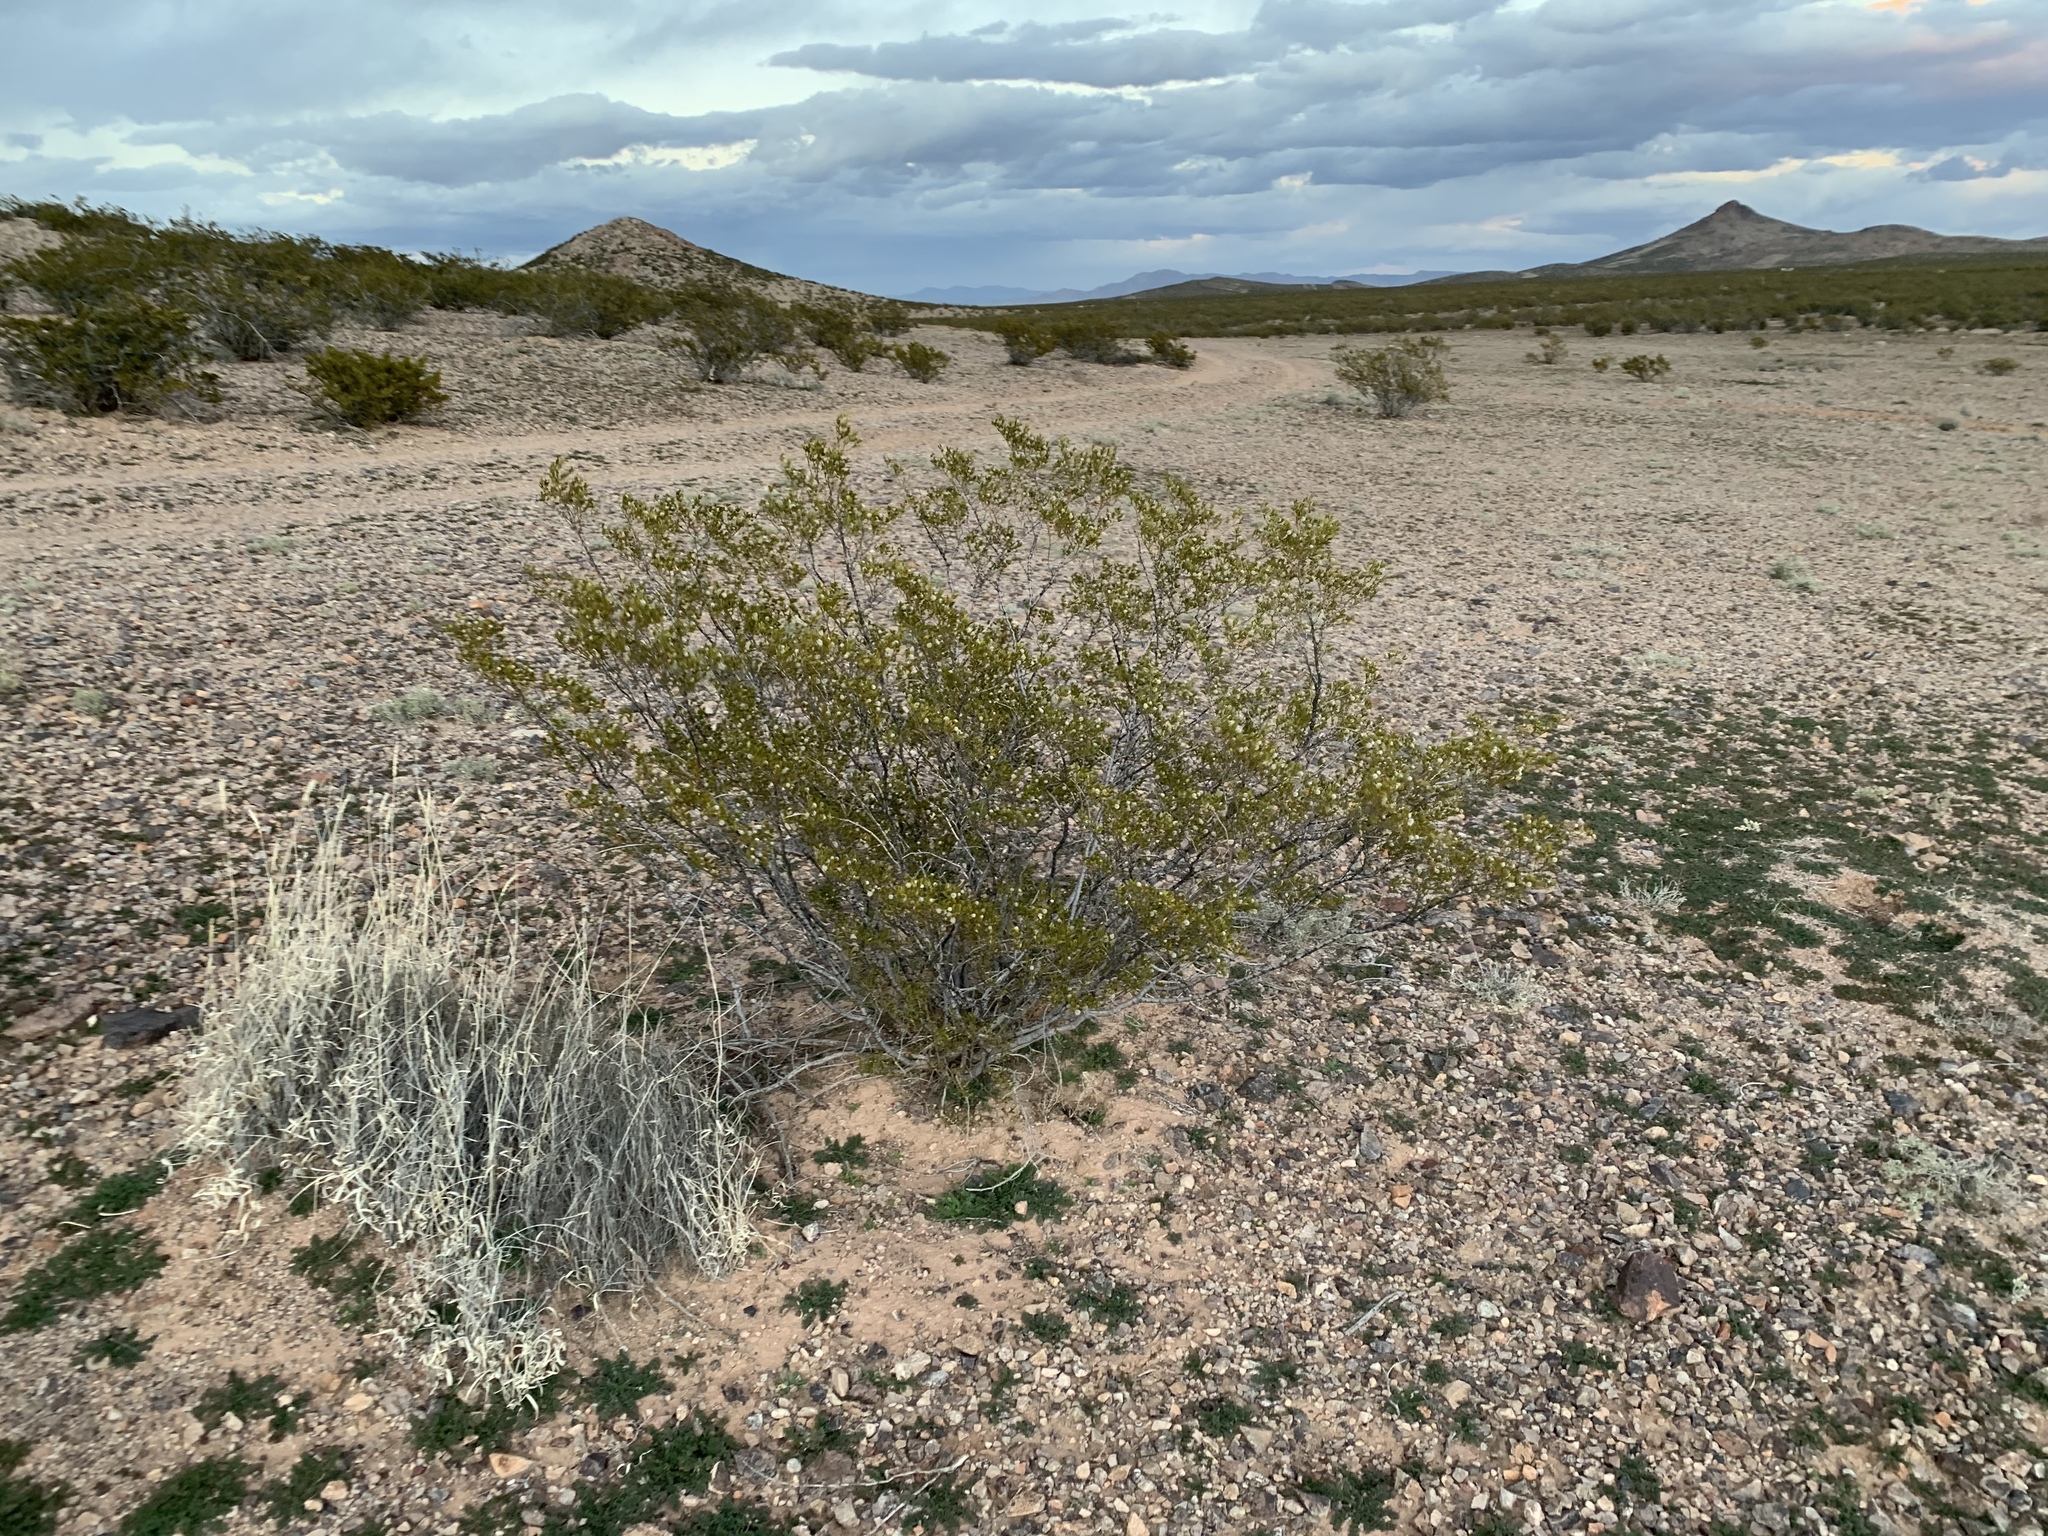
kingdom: Plantae
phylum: Tracheophyta
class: Magnoliopsida
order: Zygophyllales
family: Zygophyllaceae
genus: Larrea
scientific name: Larrea tridentata
